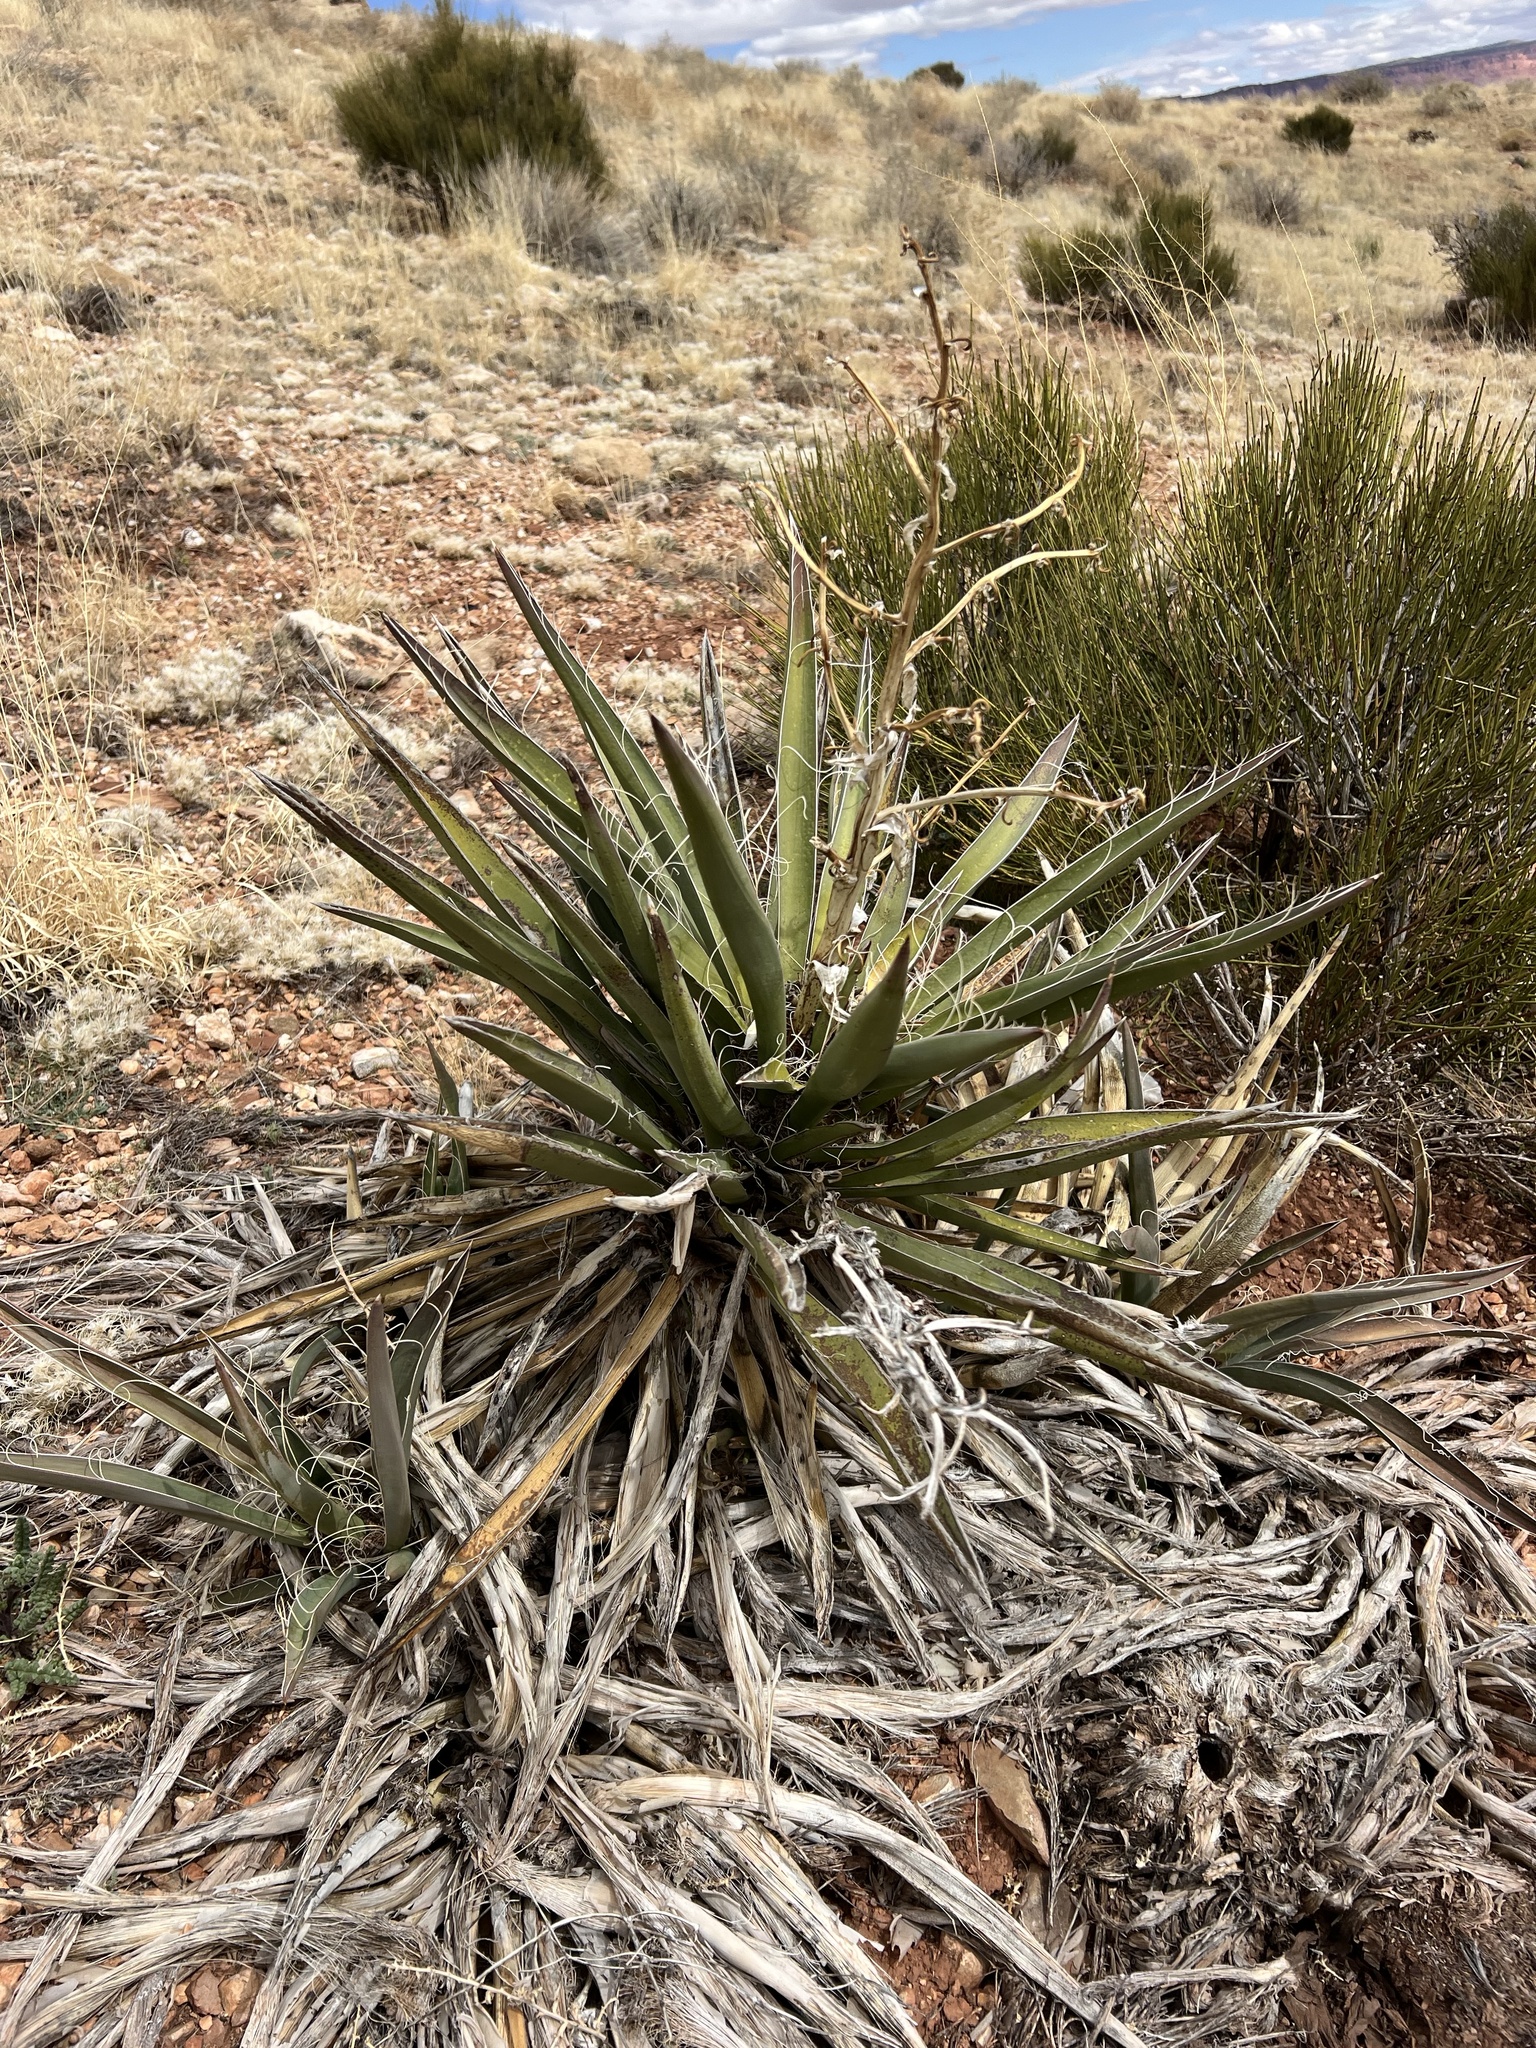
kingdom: Plantae
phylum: Tracheophyta
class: Liliopsida
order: Asparagales
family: Asparagaceae
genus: Yucca
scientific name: Yucca baccata
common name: Banana yucca
